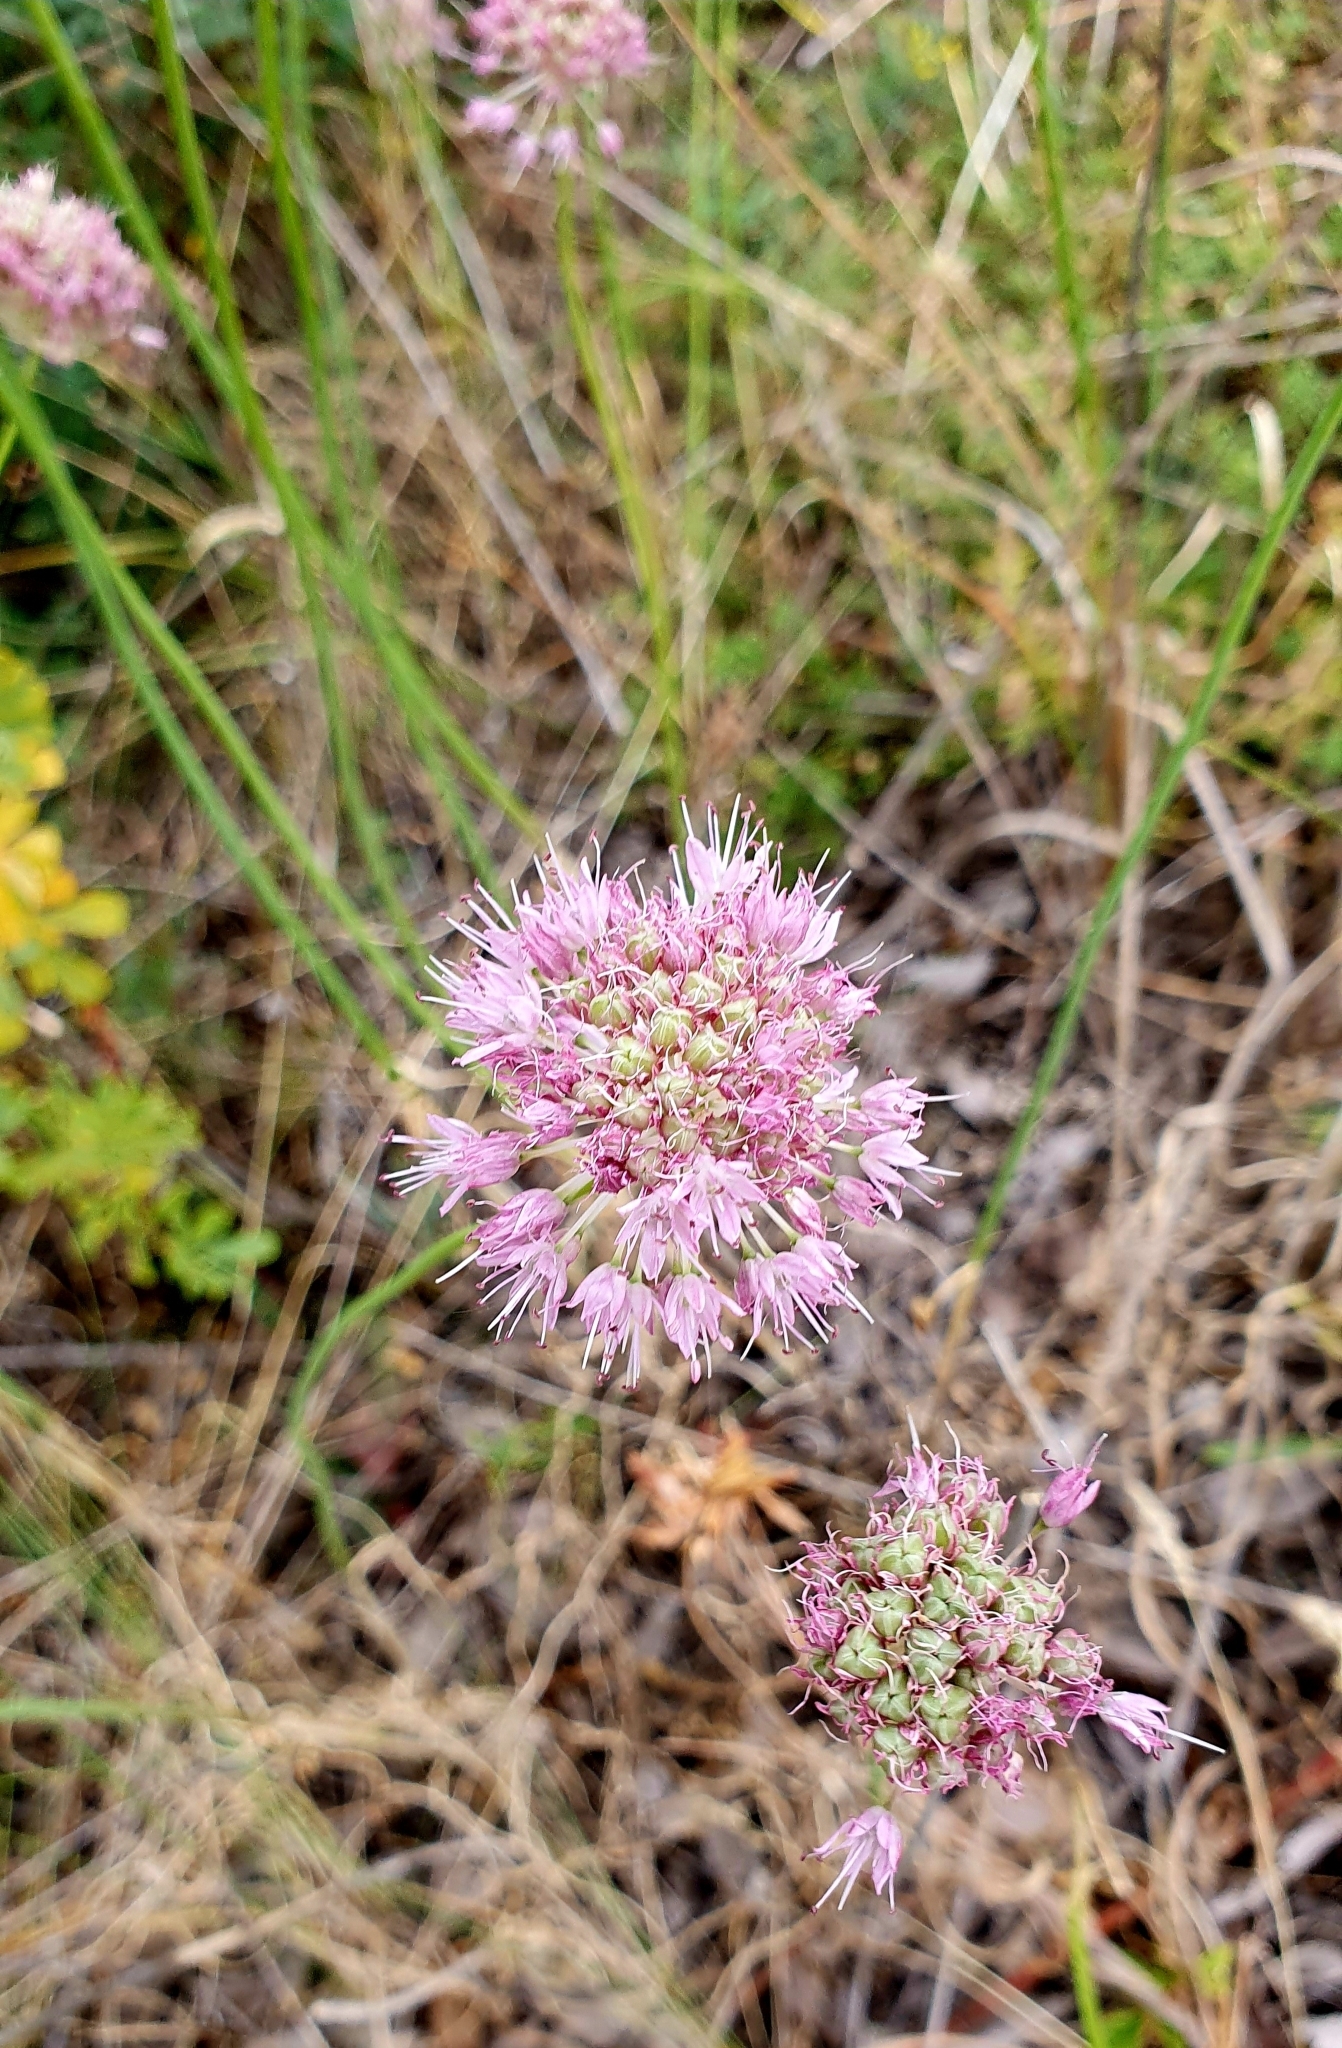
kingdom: Plantae
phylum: Tracheophyta
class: Liliopsida
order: Asparagales
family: Amaryllidaceae
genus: Allium
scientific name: Allium lineare
